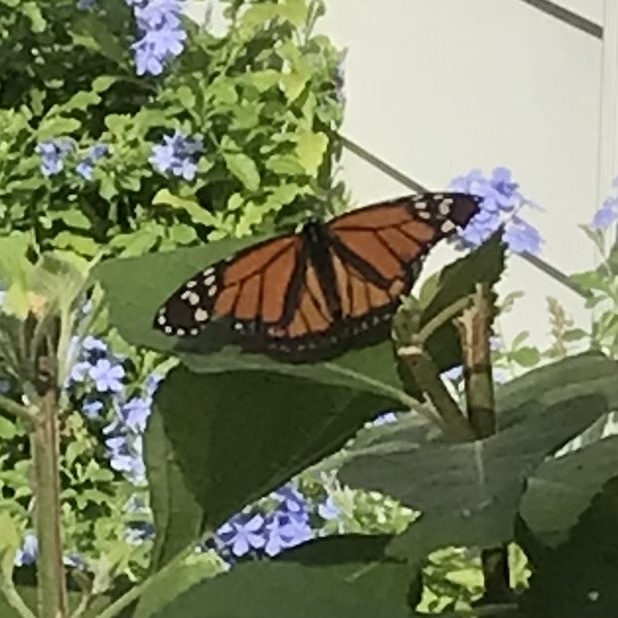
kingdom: Animalia
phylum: Arthropoda
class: Insecta
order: Lepidoptera
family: Nymphalidae
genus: Danaus
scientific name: Danaus plexippus
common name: Monarch
